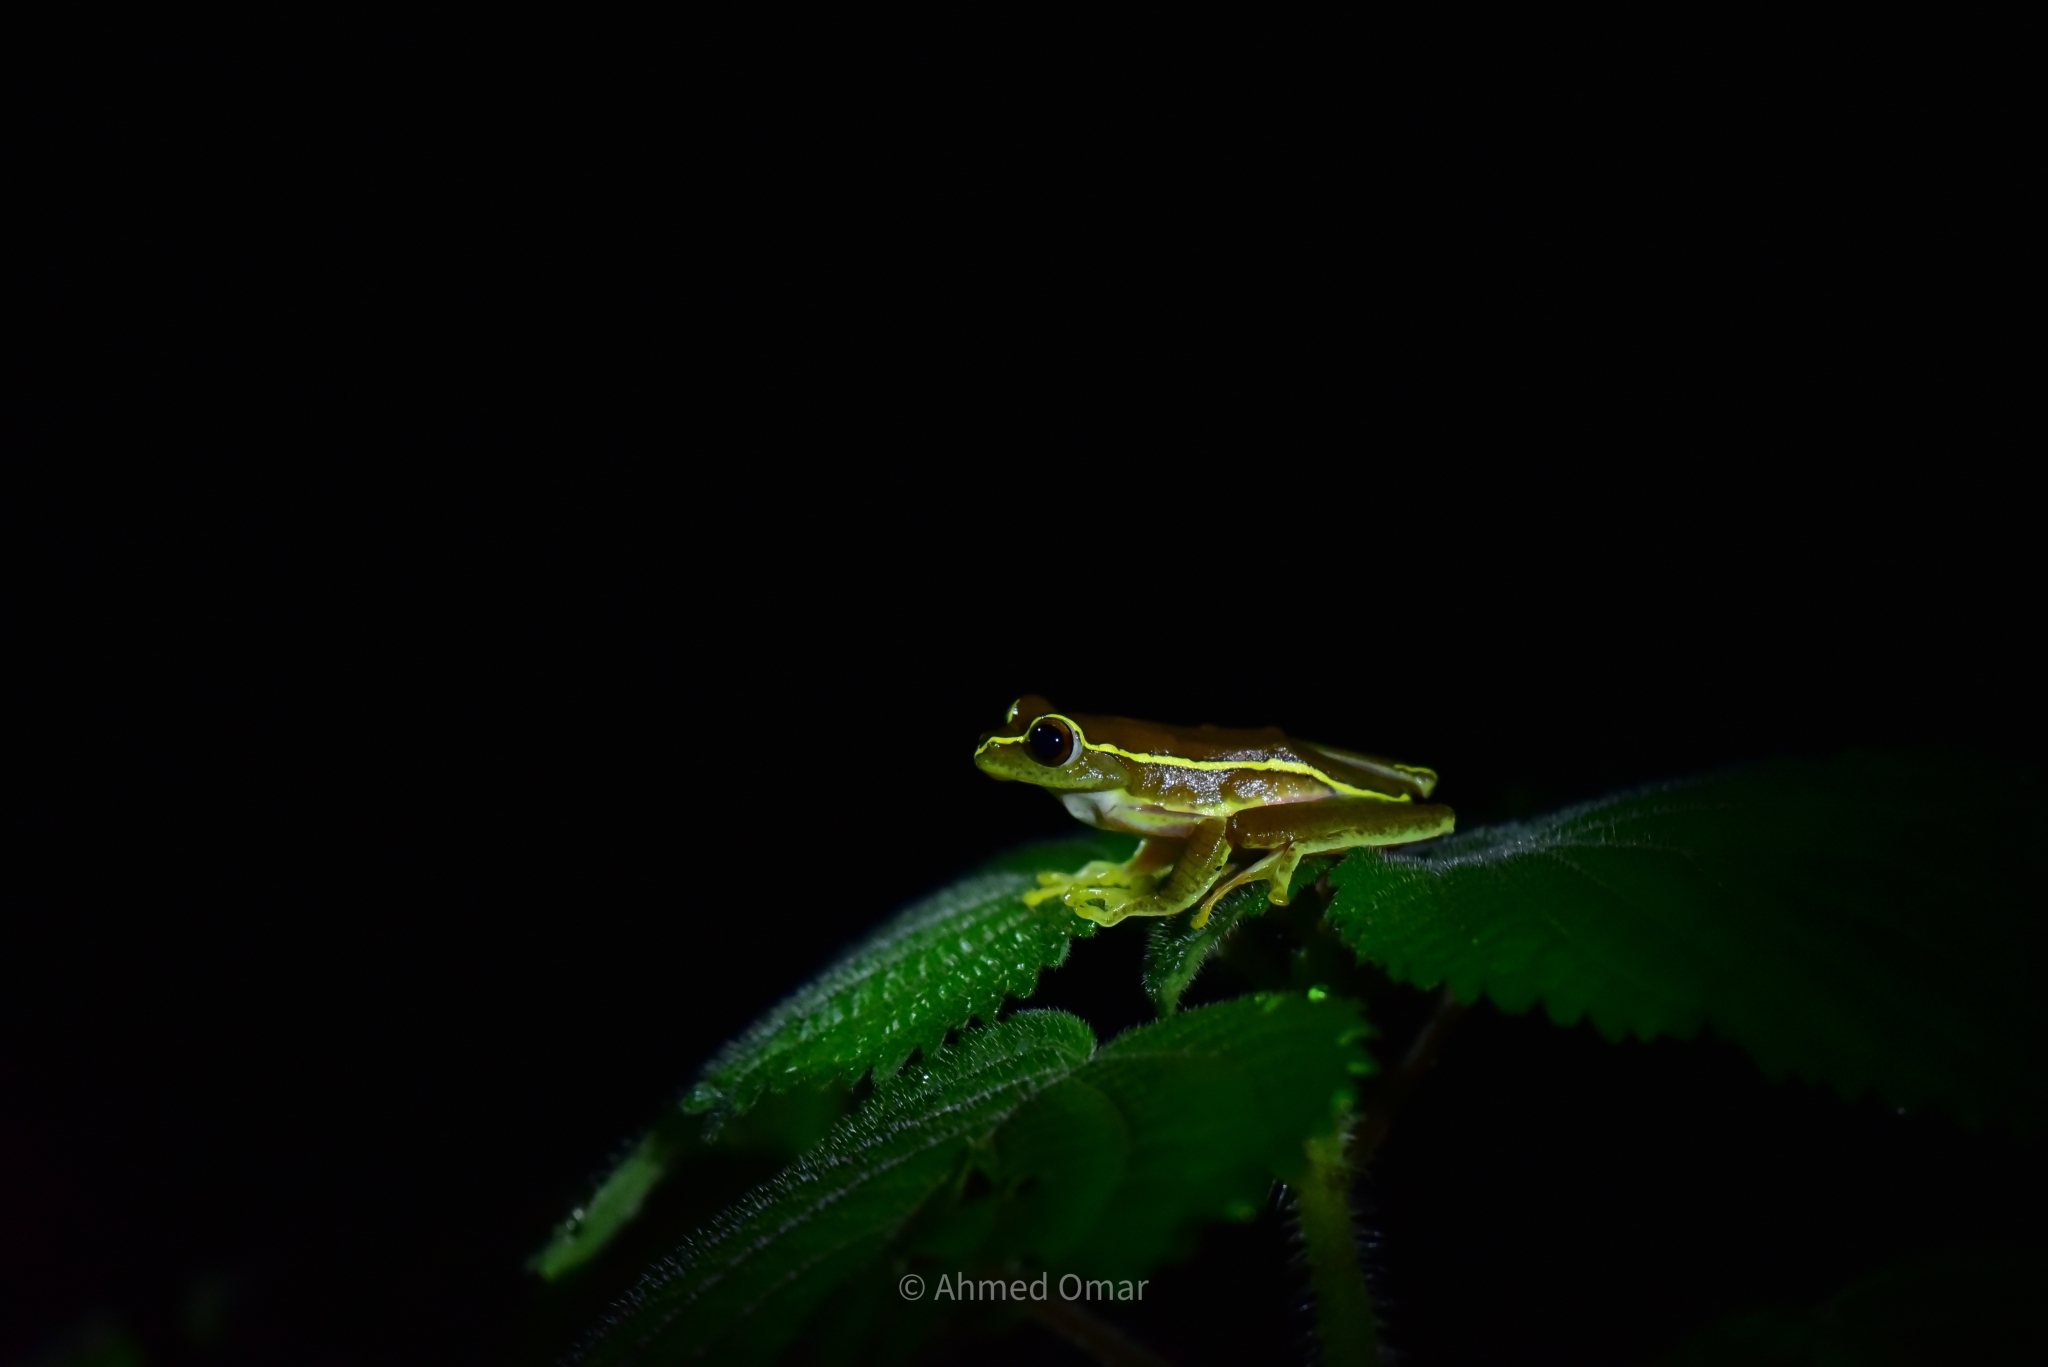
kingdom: Animalia
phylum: Chordata
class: Amphibia
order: Anura
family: Rhacophoridae
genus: Rhacophorus
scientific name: Rhacophorus lateralis
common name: Boulenger's tree frog
